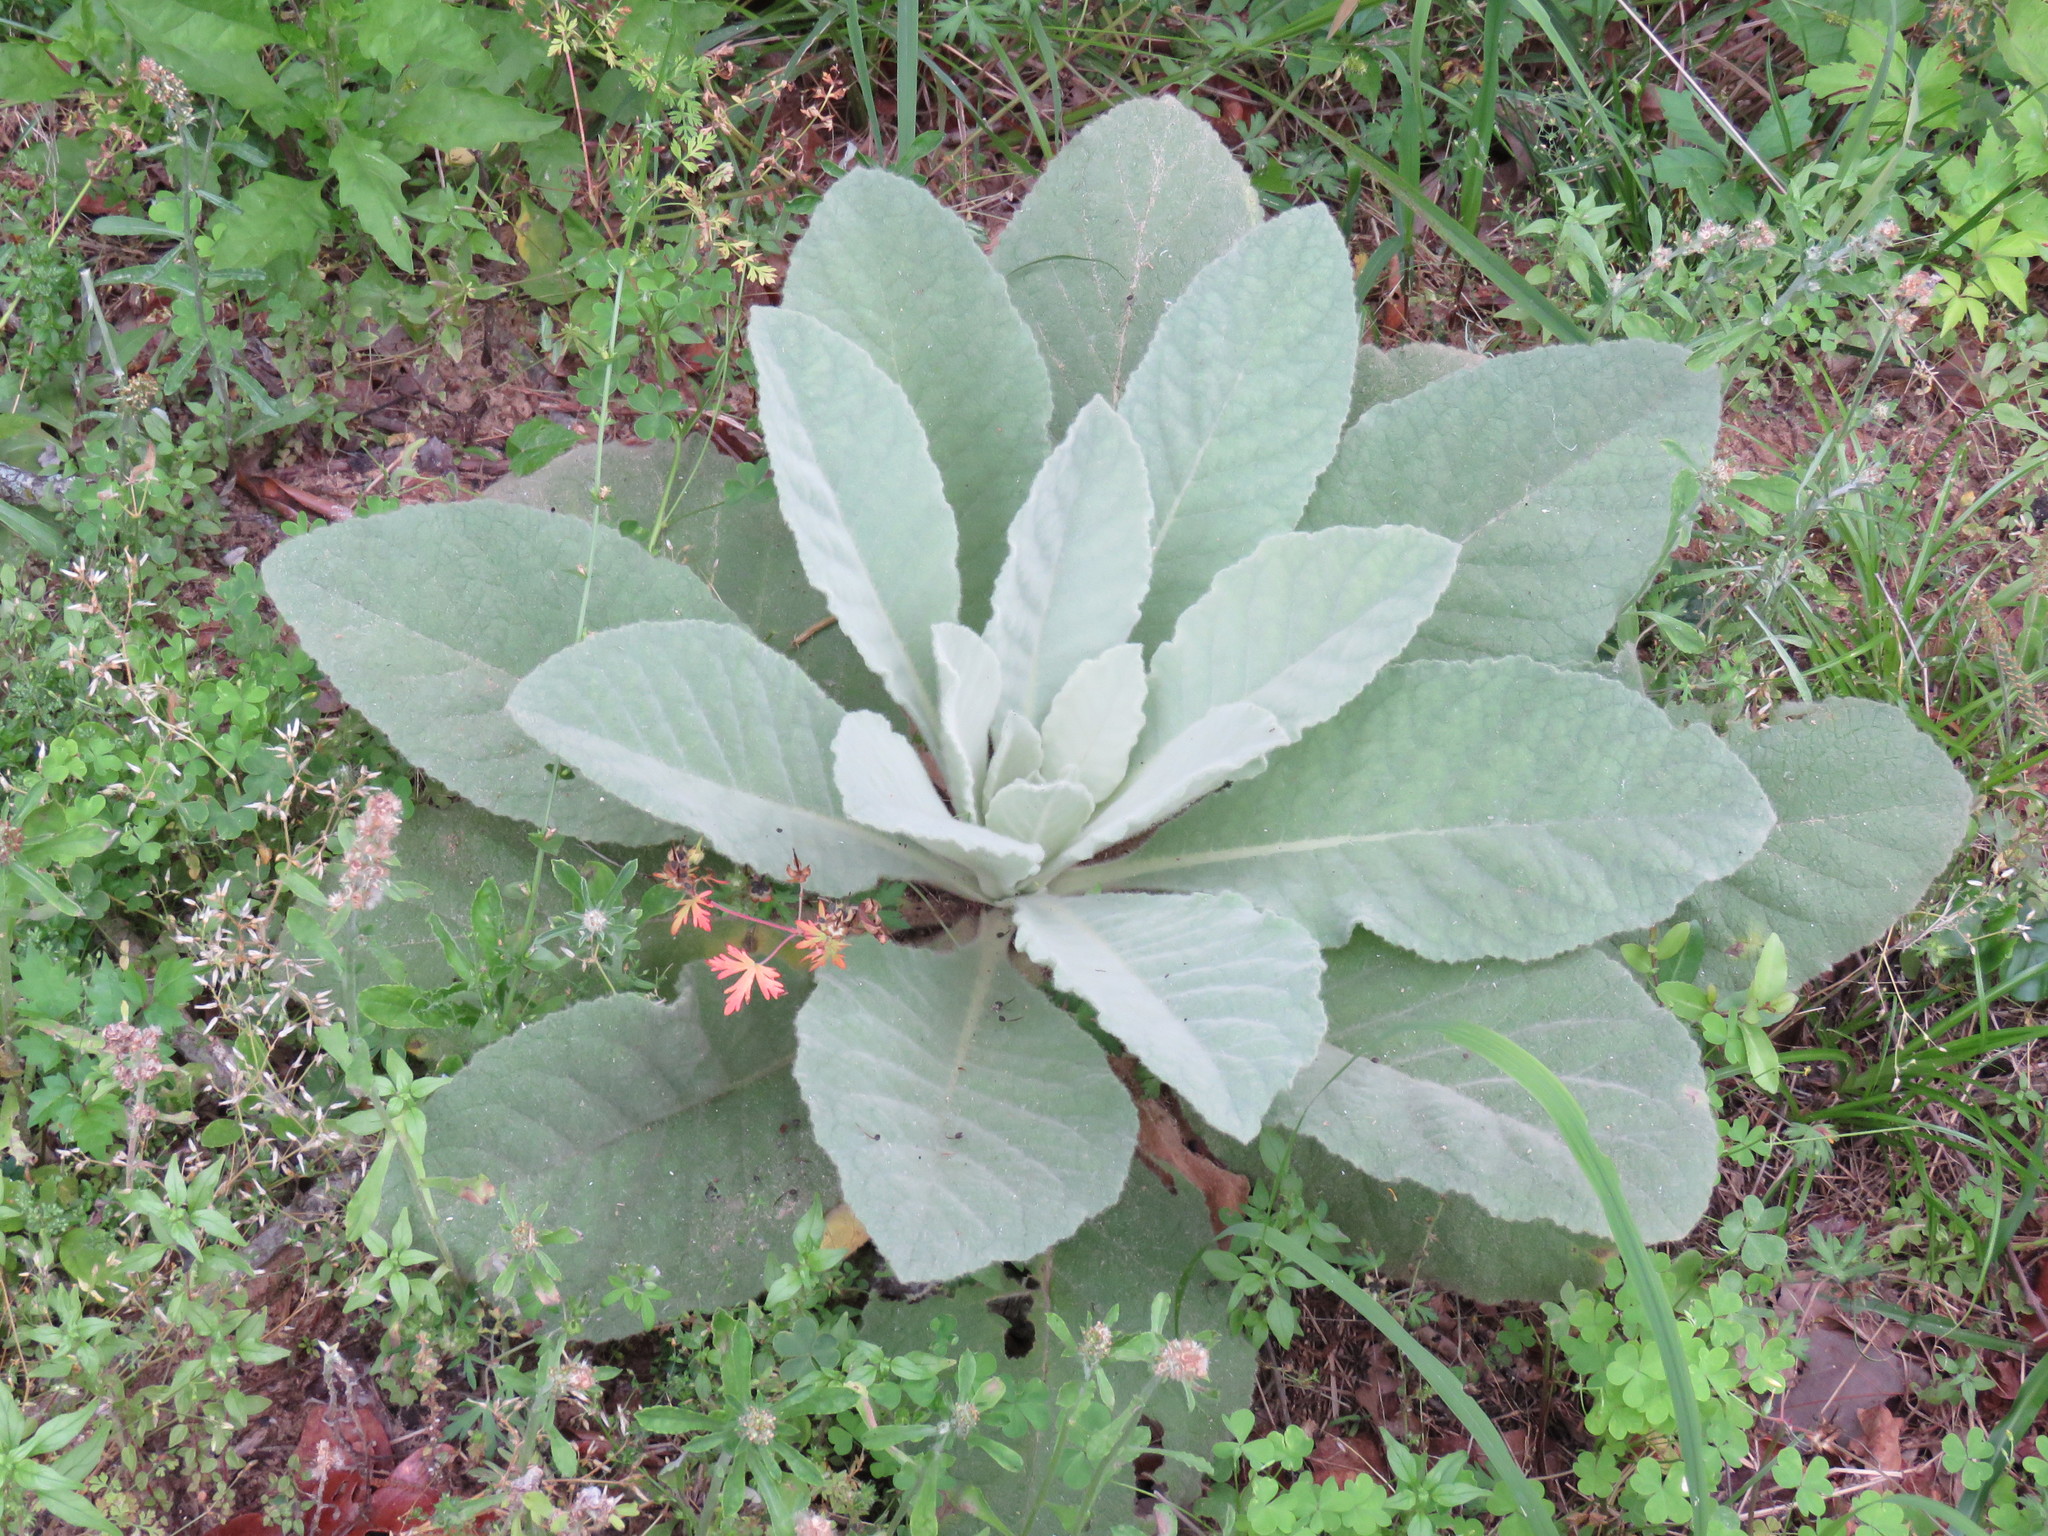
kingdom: Plantae
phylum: Tracheophyta
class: Magnoliopsida
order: Lamiales
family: Scrophulariaceae
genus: Verbascum
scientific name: Verbascum thapsus
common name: Common mullein
